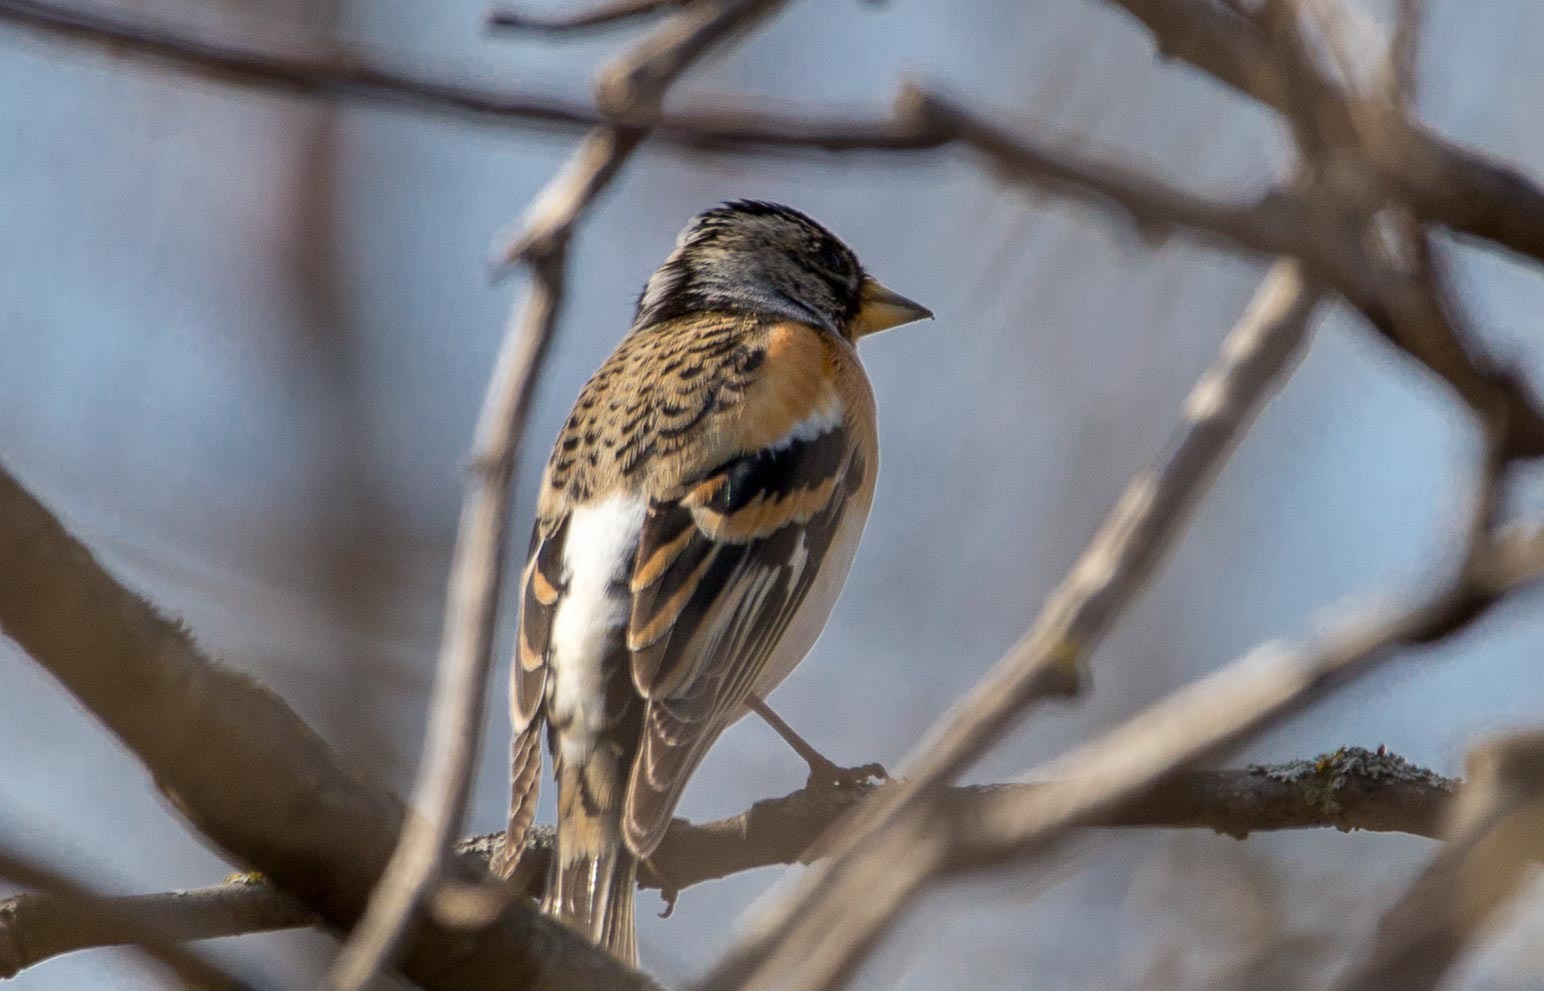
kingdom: Animalia
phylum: Chordata
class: Aves
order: Passeriformes
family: Fringillidae
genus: Fringilla
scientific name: Fringilla montifringilla
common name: Brambling
